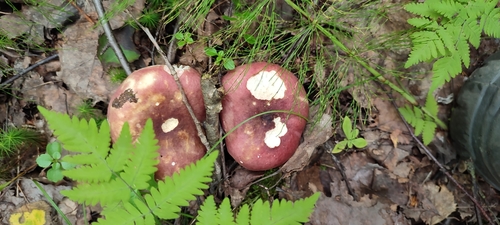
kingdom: Fungi
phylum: Basidiomycota
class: Agaricomycetes
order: Russulales
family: Russulaceae
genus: Russula
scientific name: Russula
